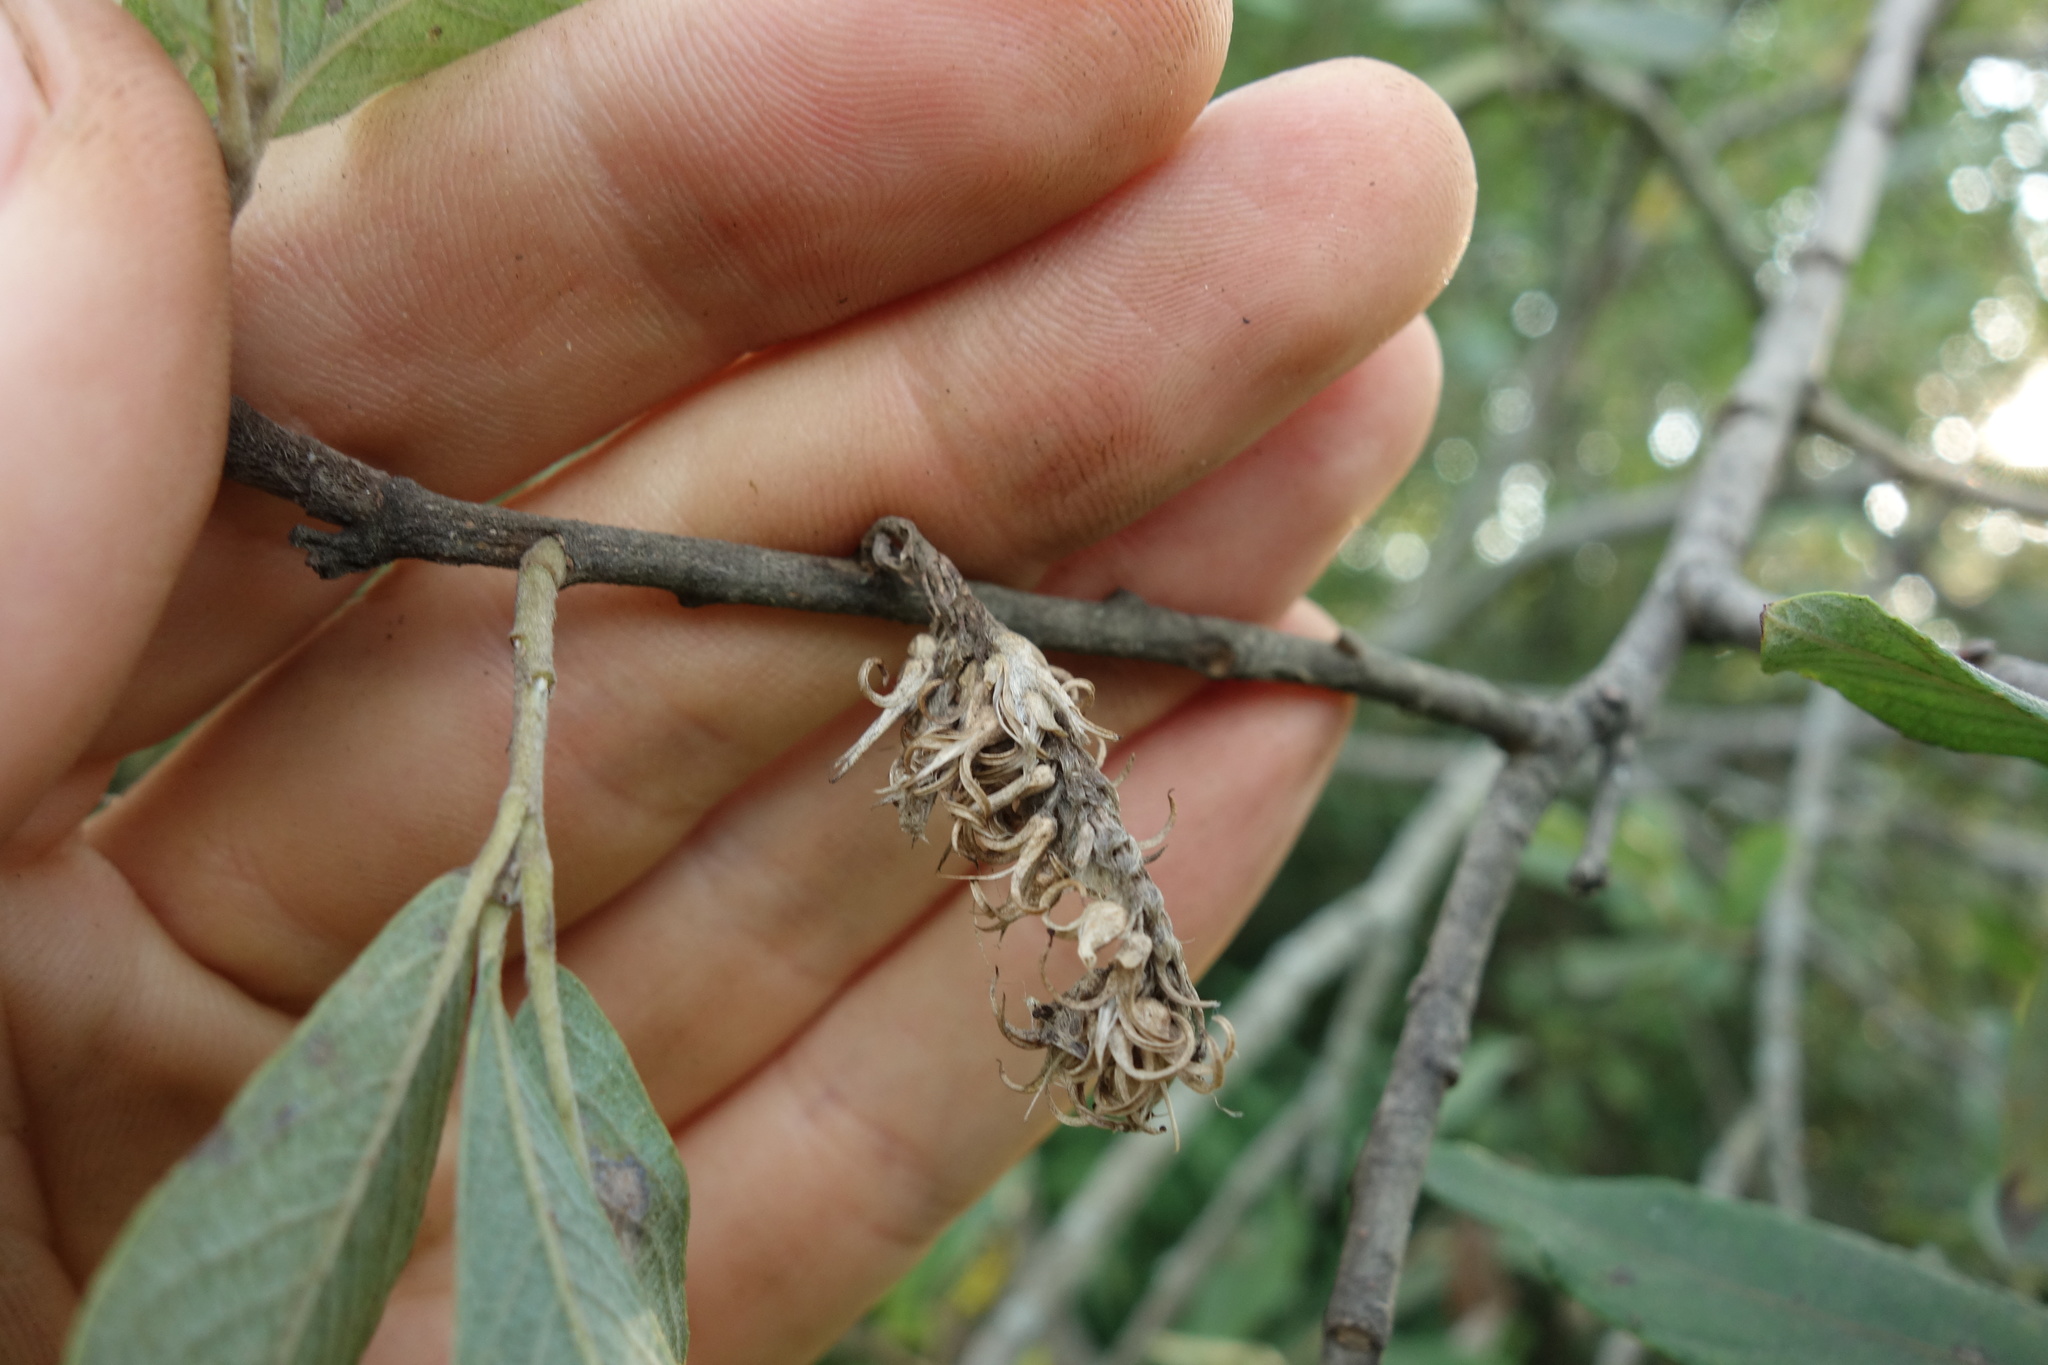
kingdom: Plantae
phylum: Tracheophyta
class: Magnoliopsida
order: Malpighiales
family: Salicaceae
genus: Salix
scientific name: Salix cinerea
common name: Common sallow
